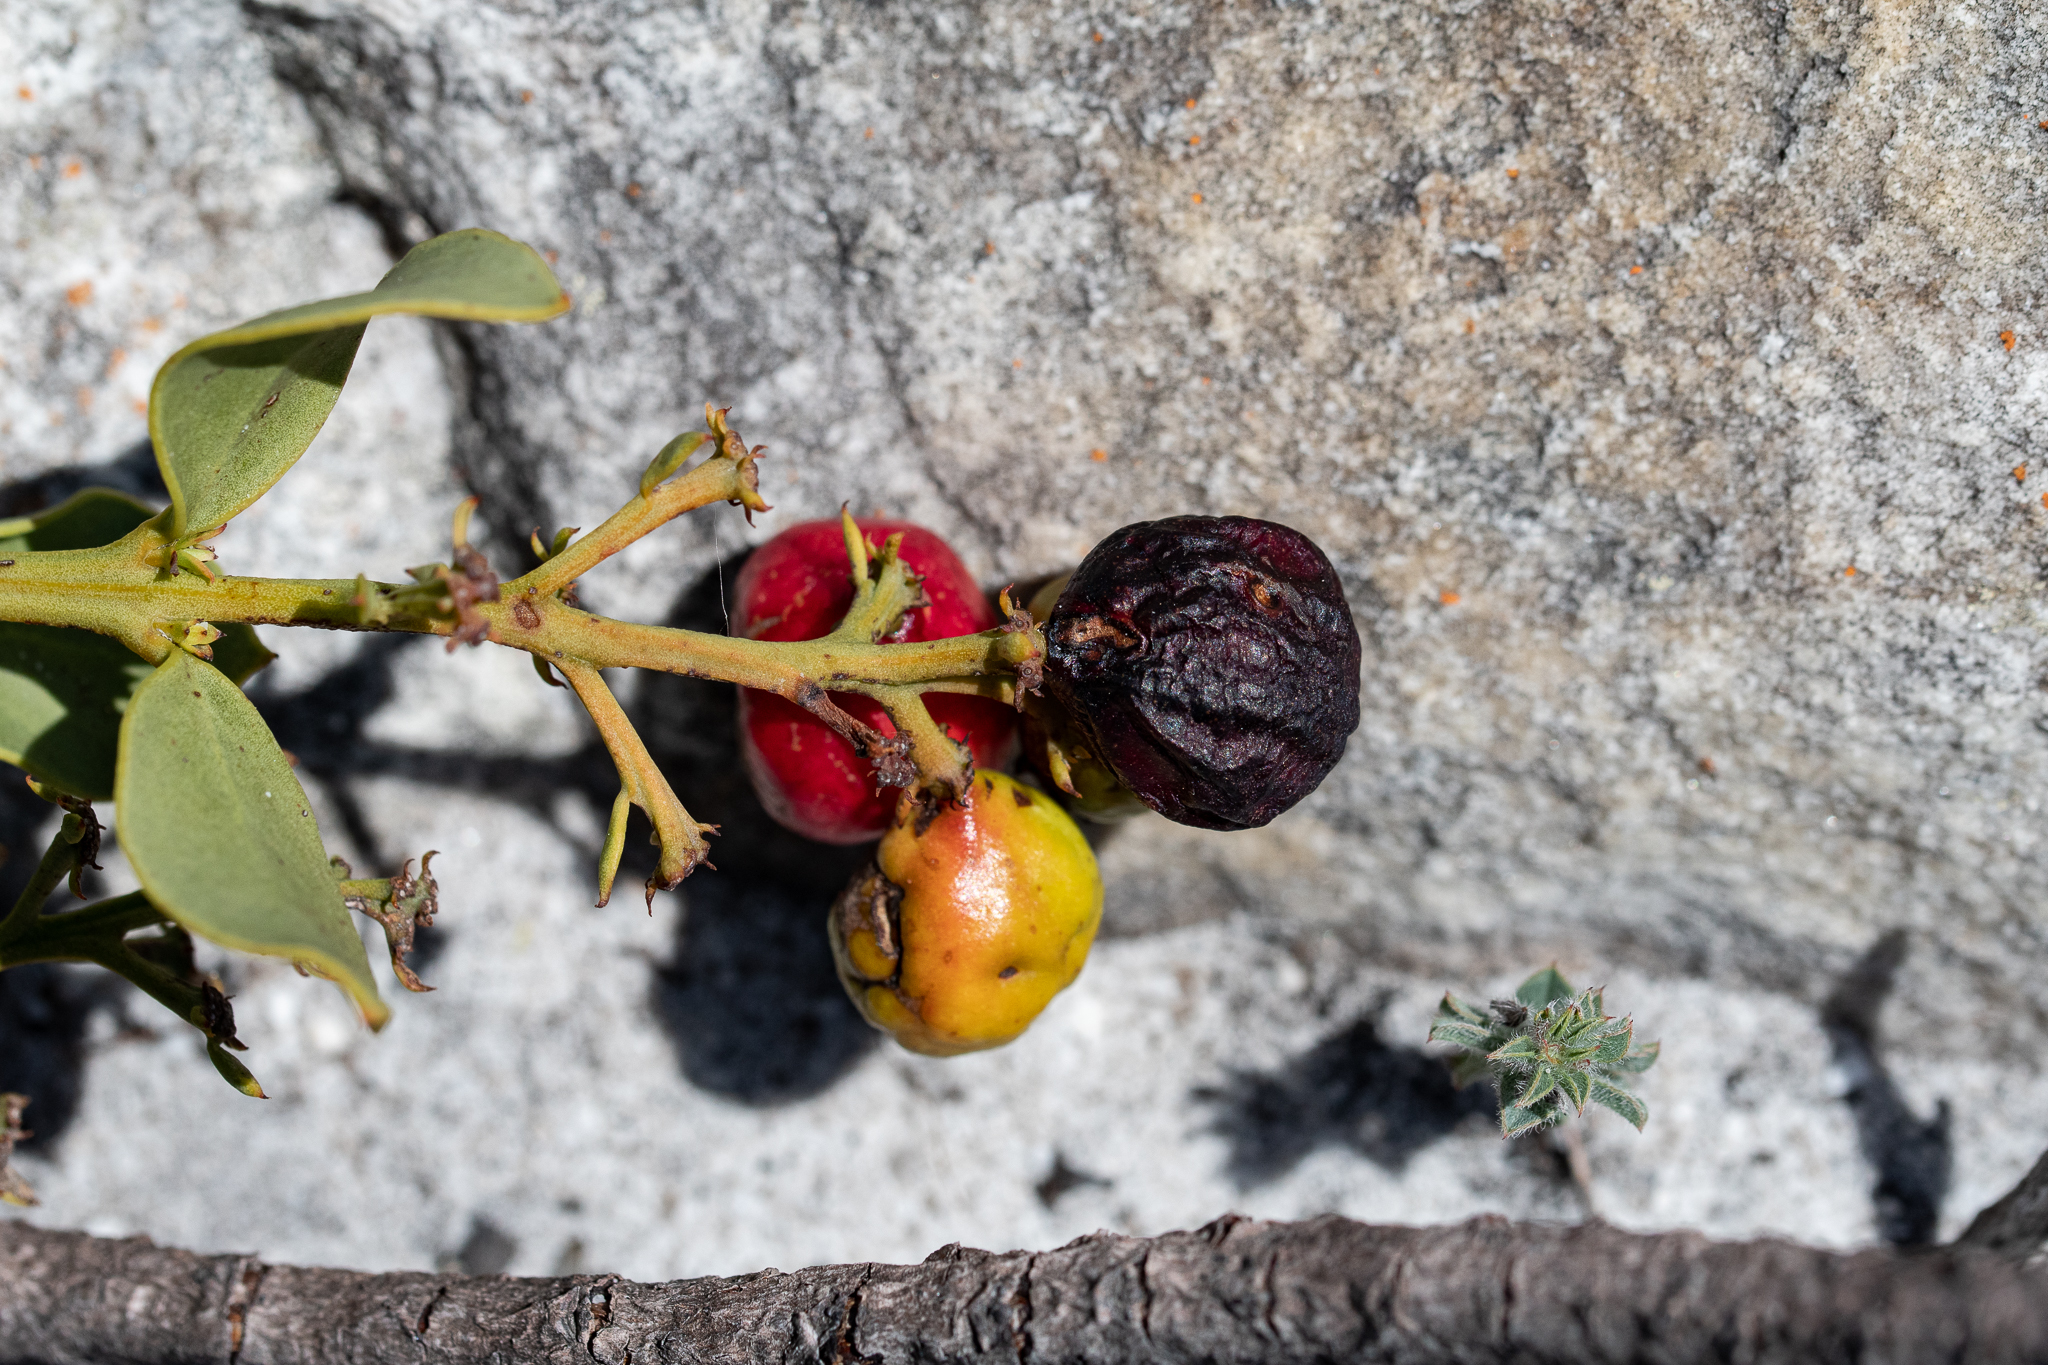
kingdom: Plantae
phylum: Tracheophyta
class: Magnoliopsida
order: Santalales
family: Santalaceae
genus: Osyris
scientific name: Osyris speciosa
